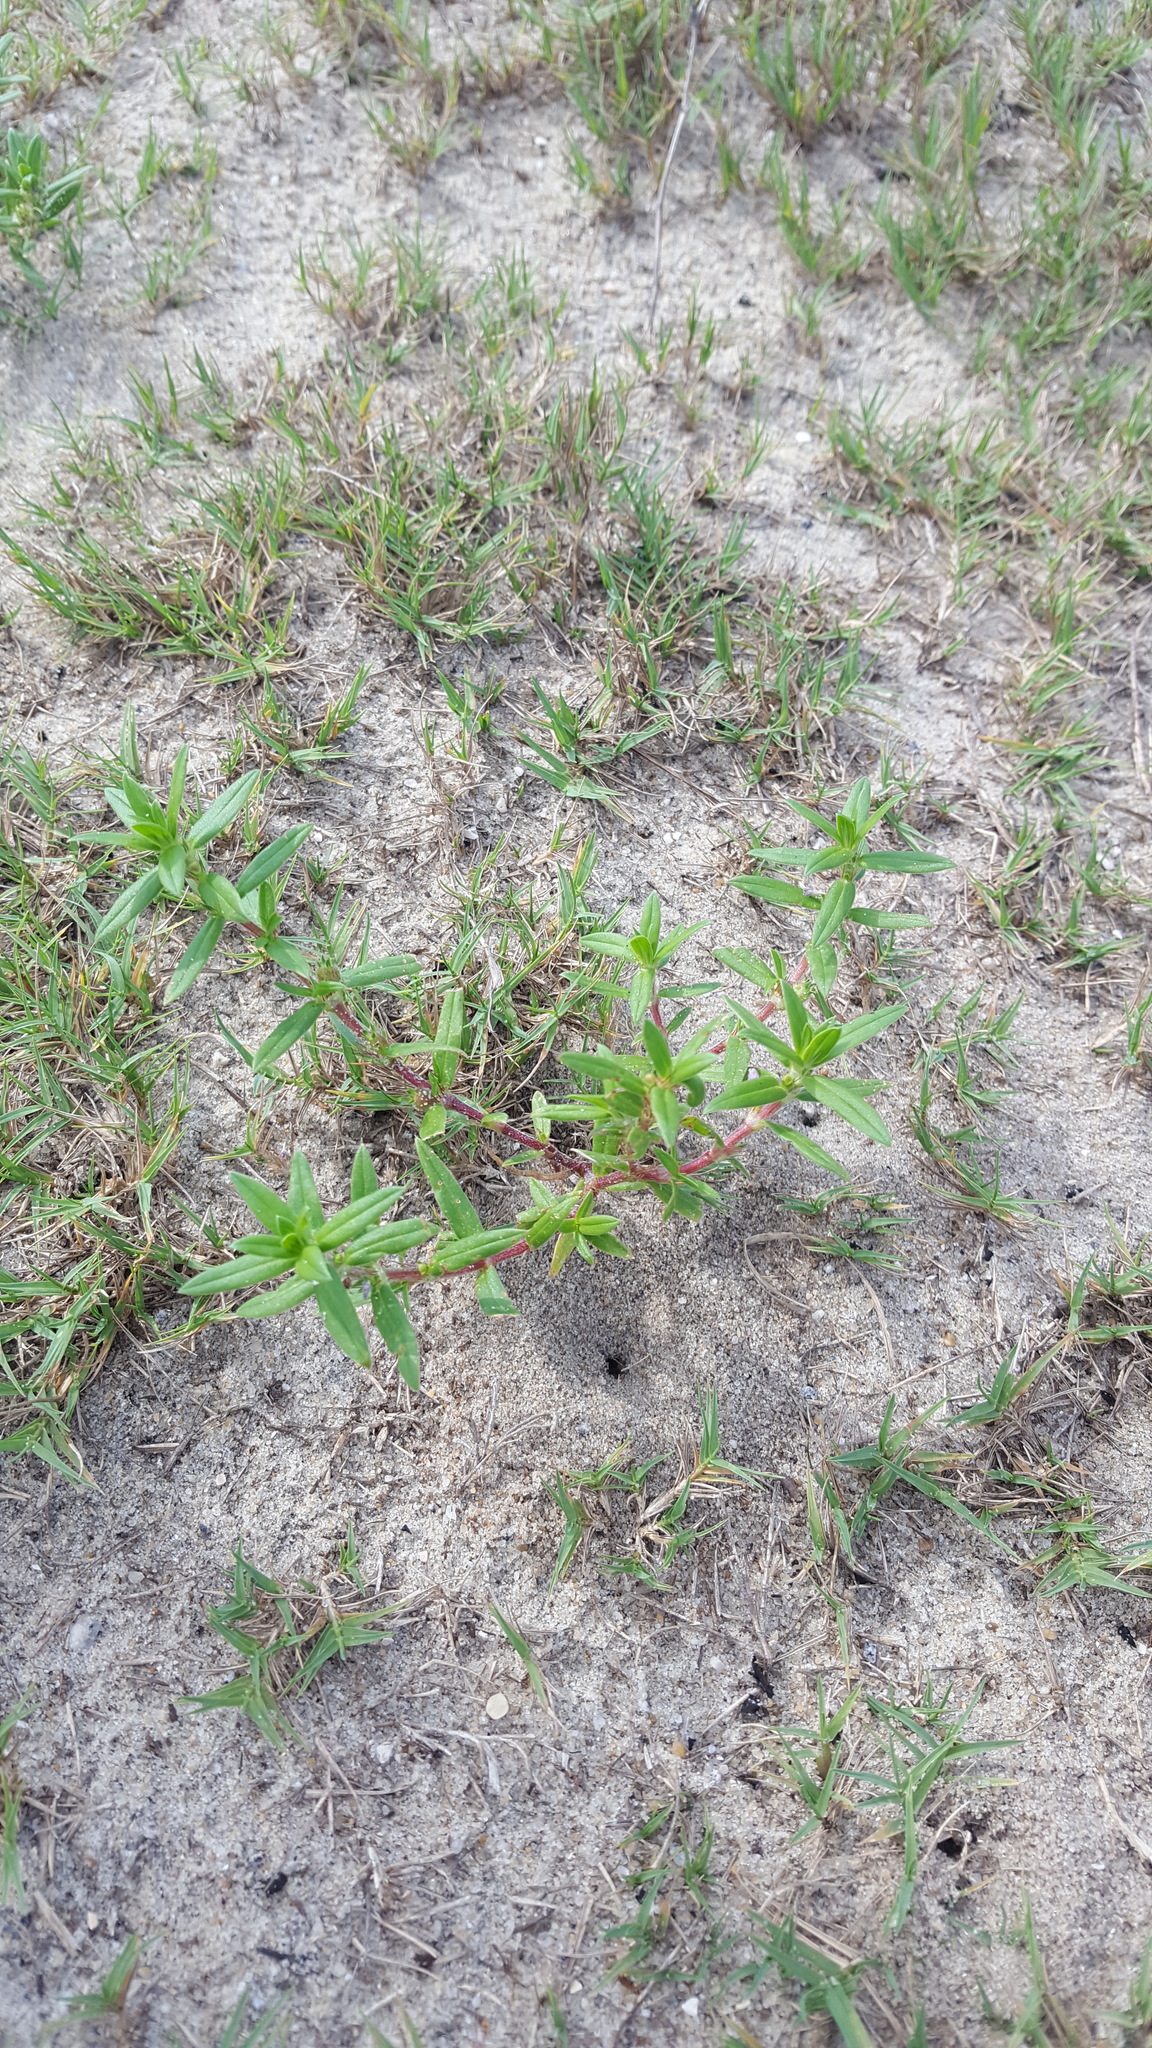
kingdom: Plantae
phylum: Tracheophyta
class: Magnoliopsida
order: Gentianales
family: Rubiaceae
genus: Hexasepalum
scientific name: Hexasepalum teres
